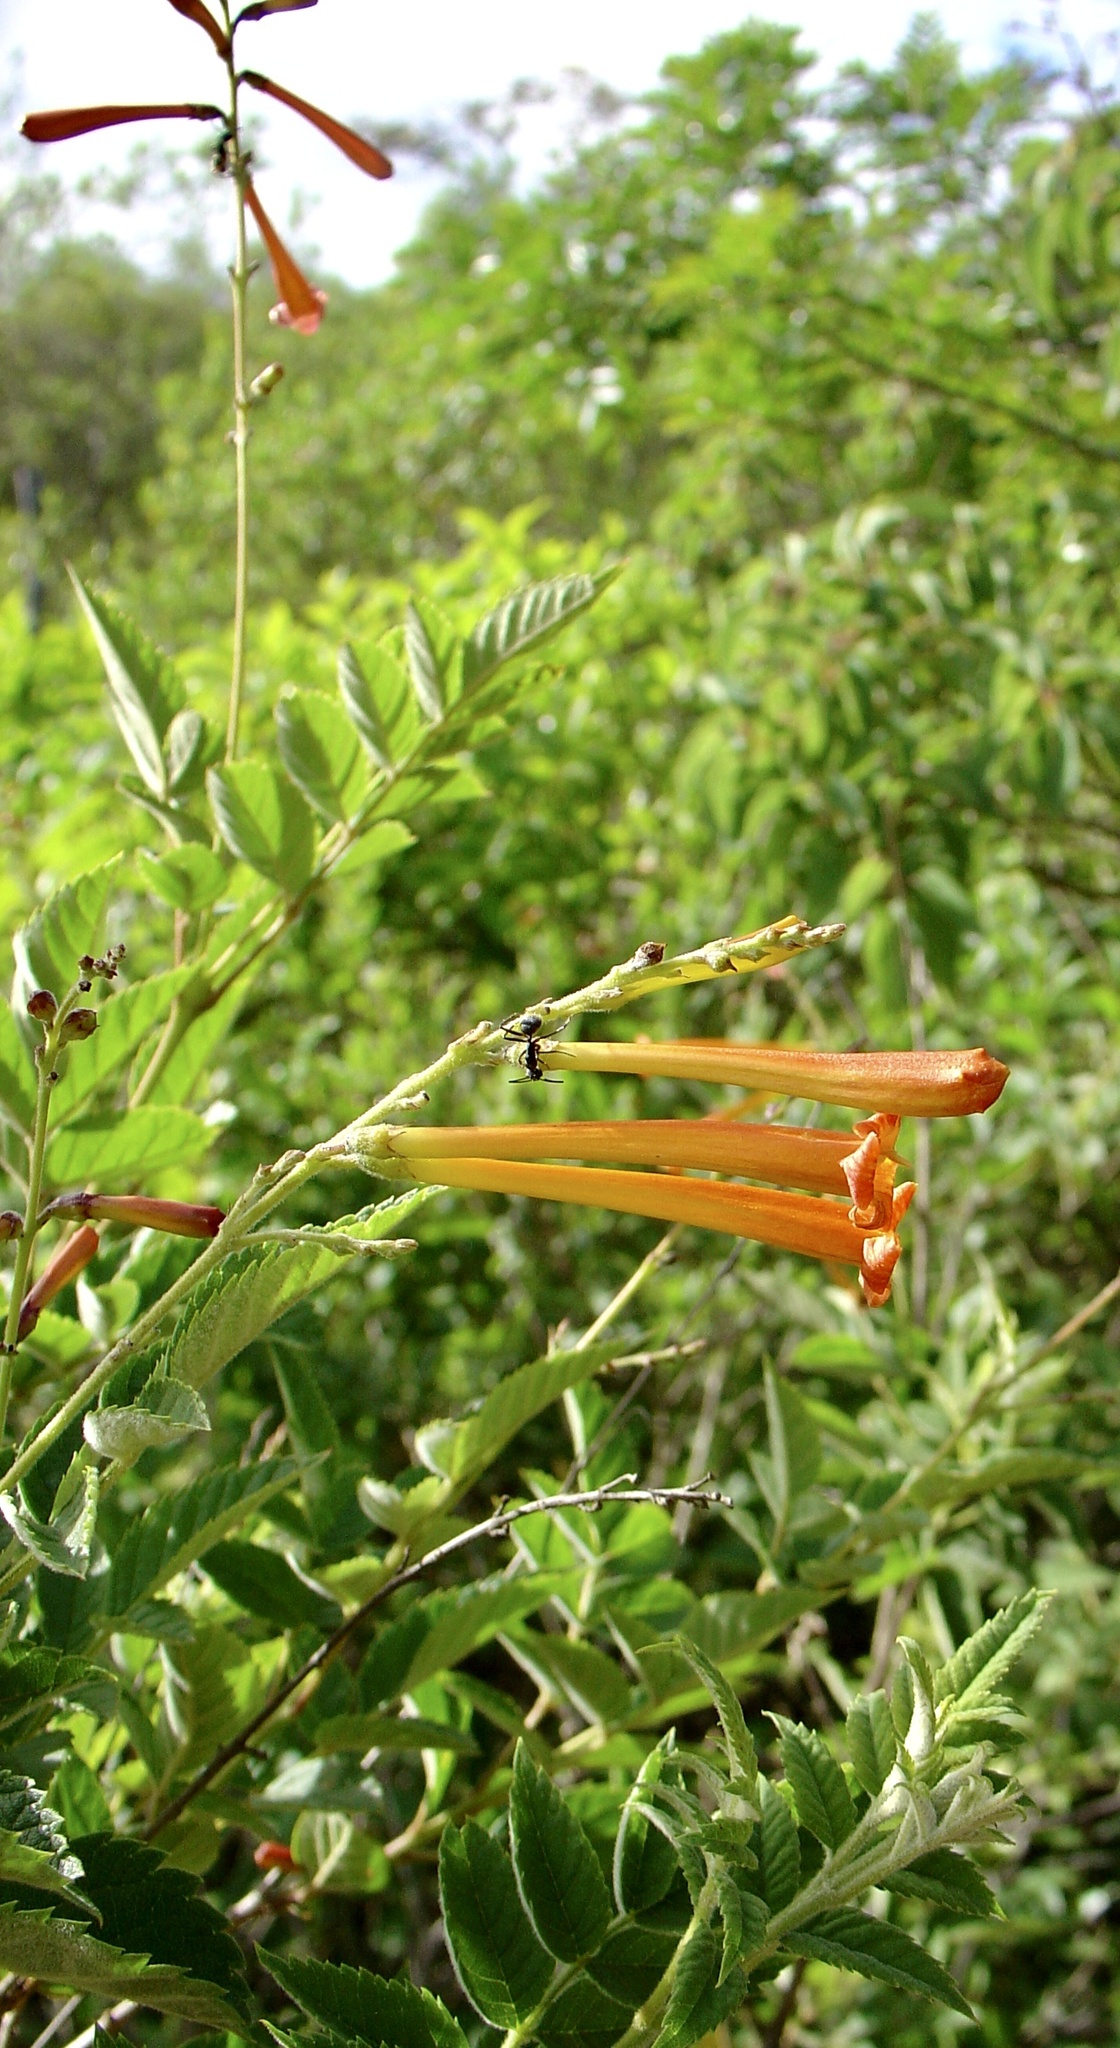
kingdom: Plantae
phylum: Tracheophyta
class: Magnoliopsida
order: Lamiales
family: Bignoniaceae
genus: Tecoma
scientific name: Tecoma tenuiflora
